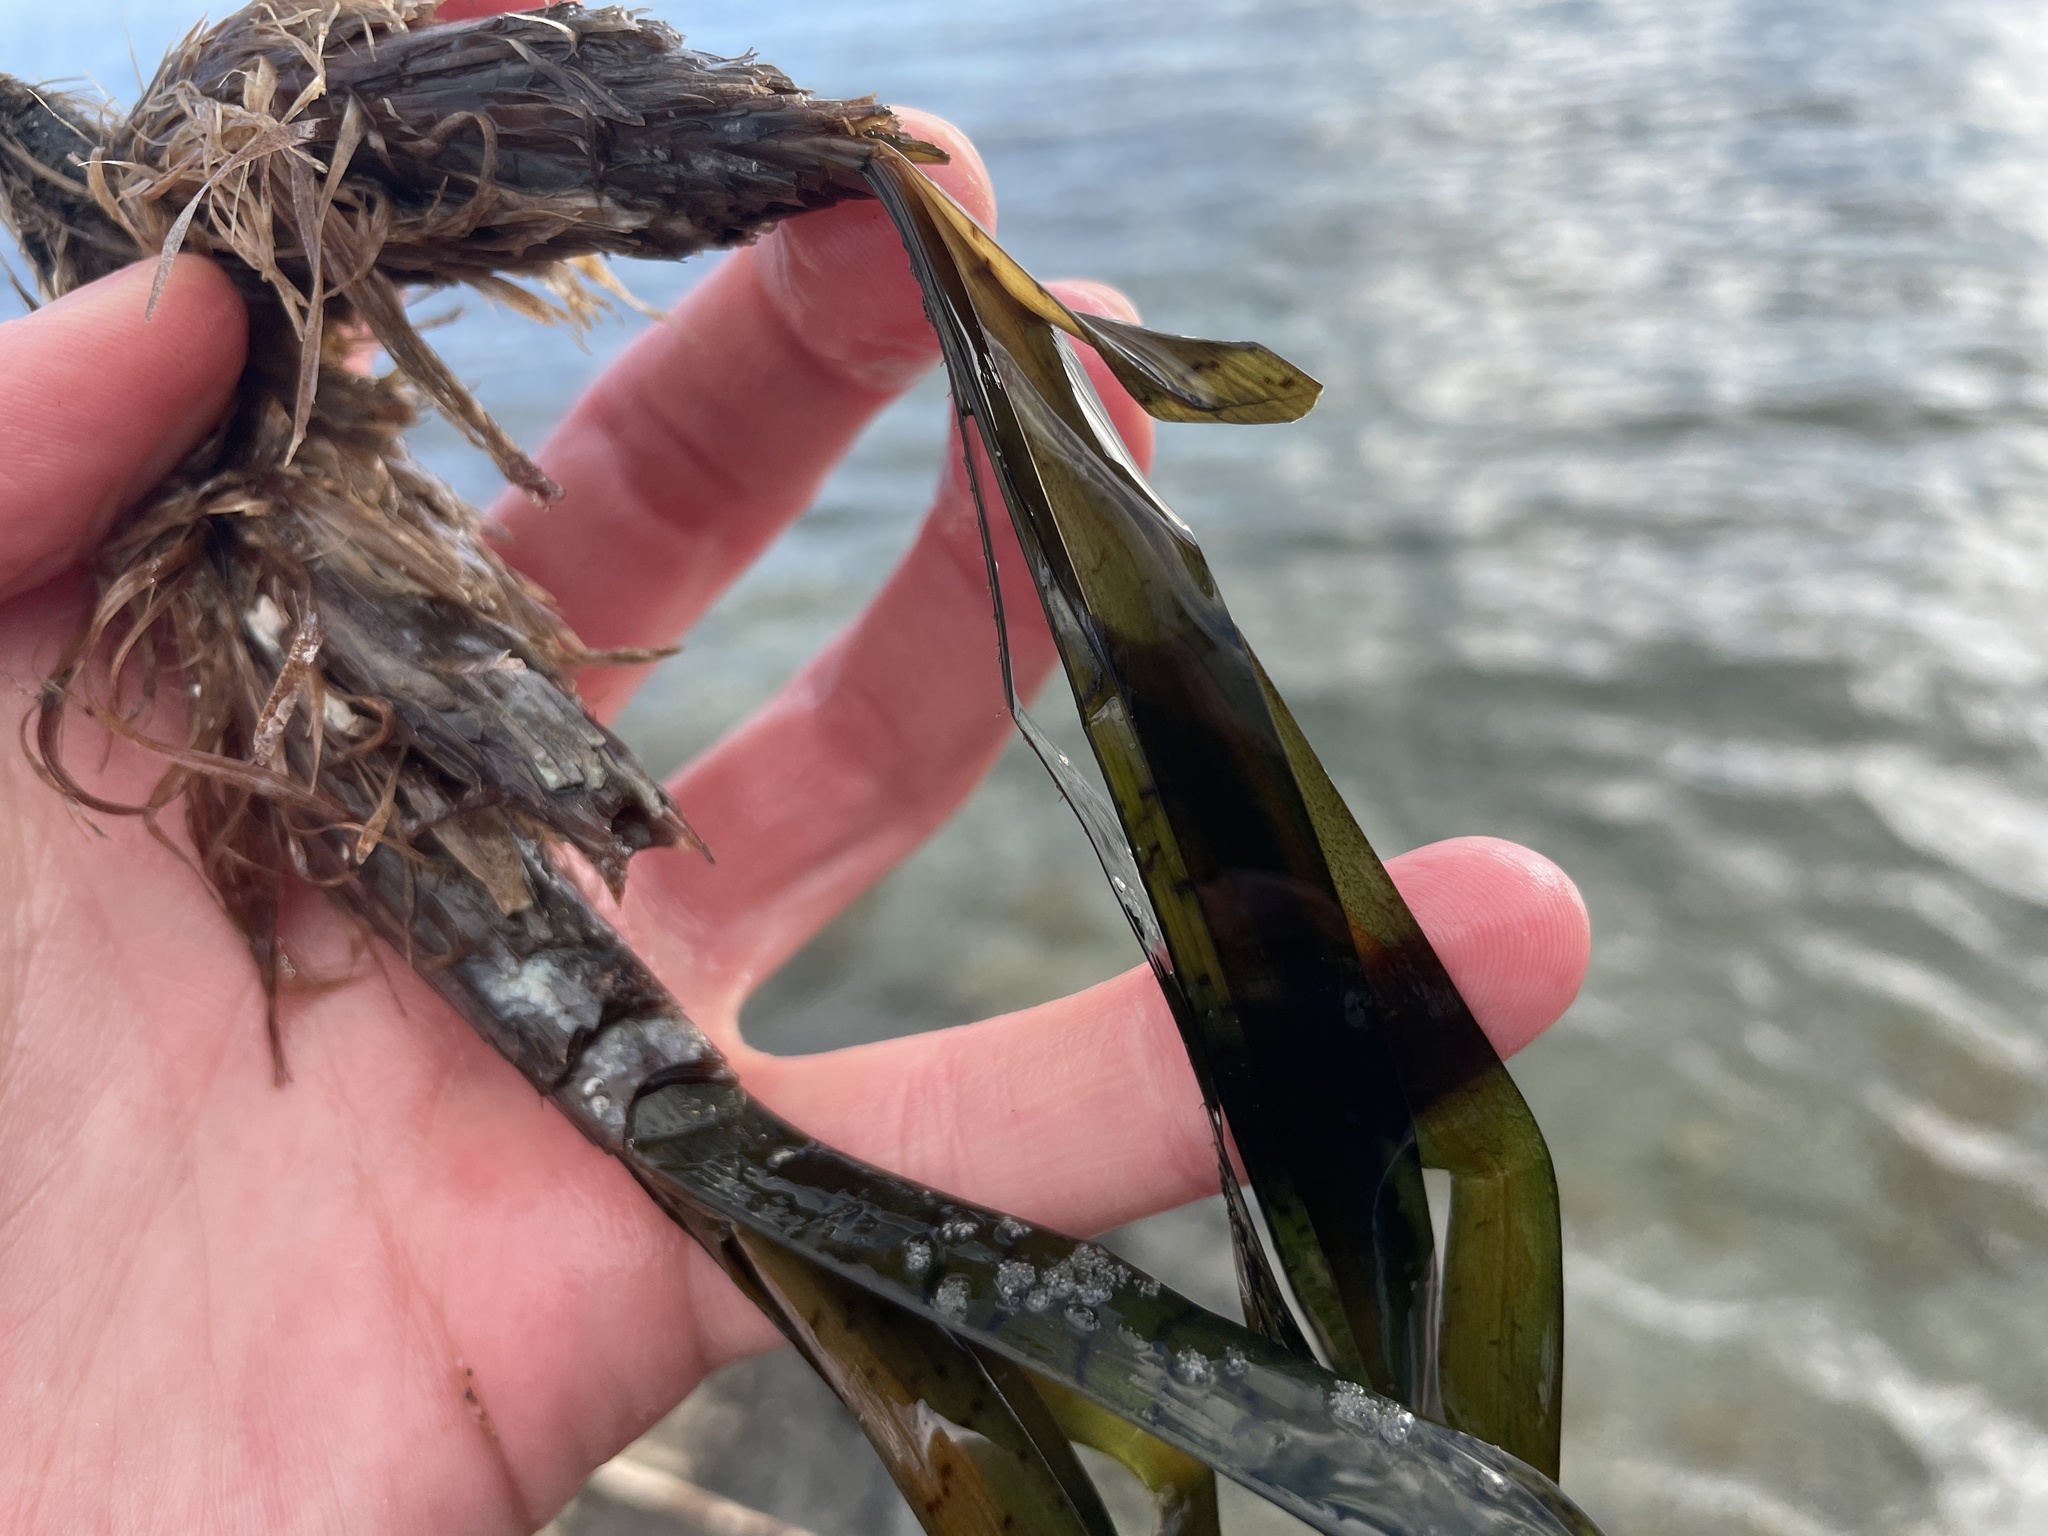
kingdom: Plantae
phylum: Tracheophyta
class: Liliopsida
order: Alismatales
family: Posidoniaceae
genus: Posidonia
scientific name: Posidonia oceanica
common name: Mediterranean tapeweed
